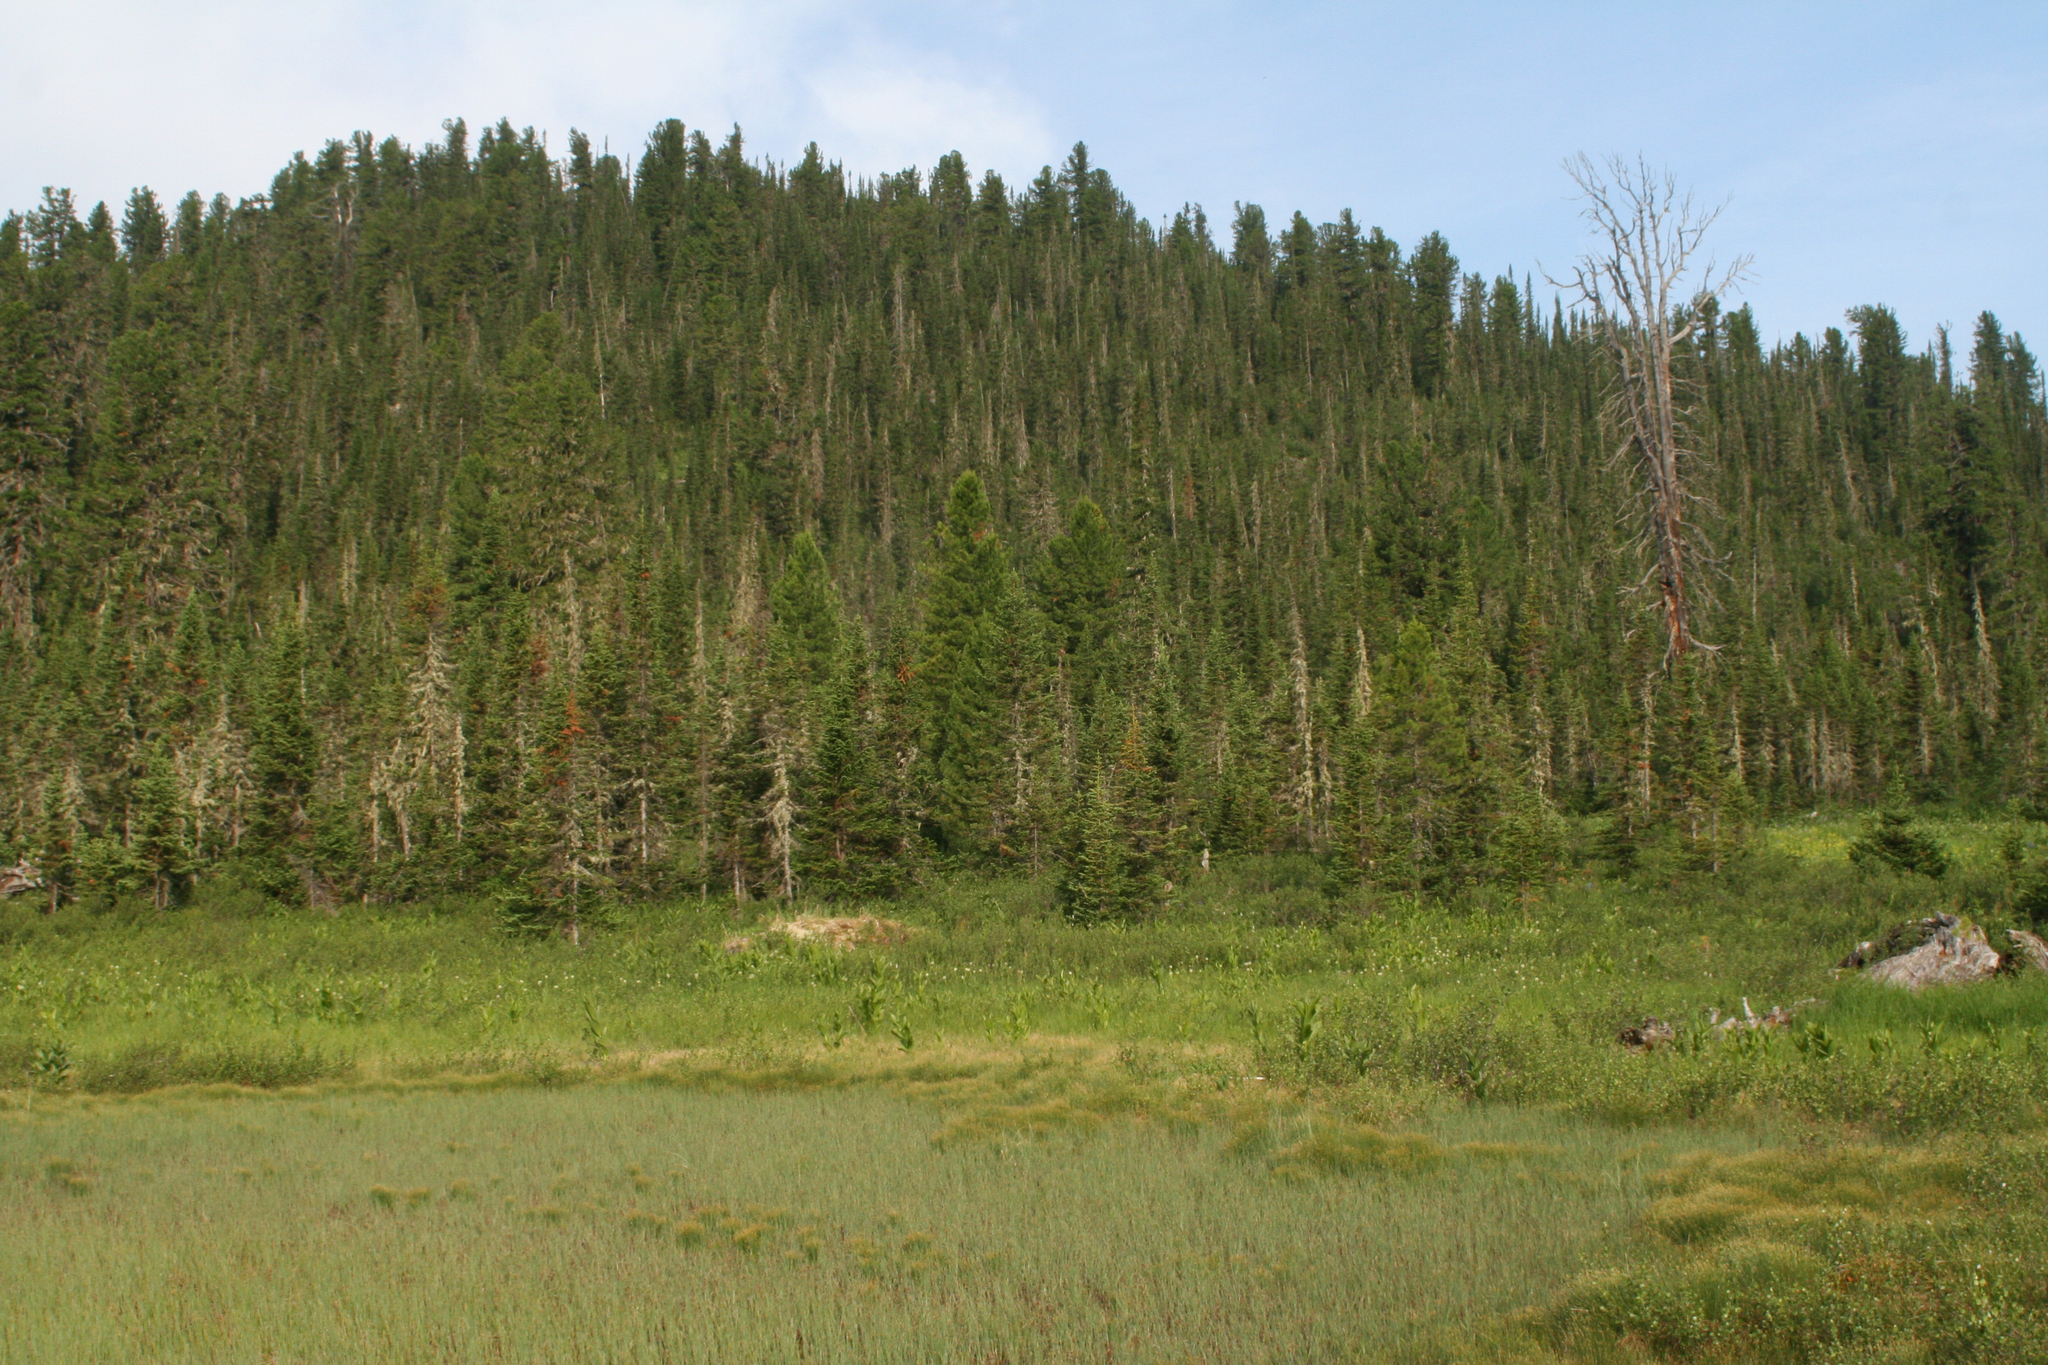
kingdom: Plantae
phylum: Tracheophyta
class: Pinopsida
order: Pinales
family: Pinaceae
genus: Abies
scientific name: Abies sibirica
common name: Siberian fir
